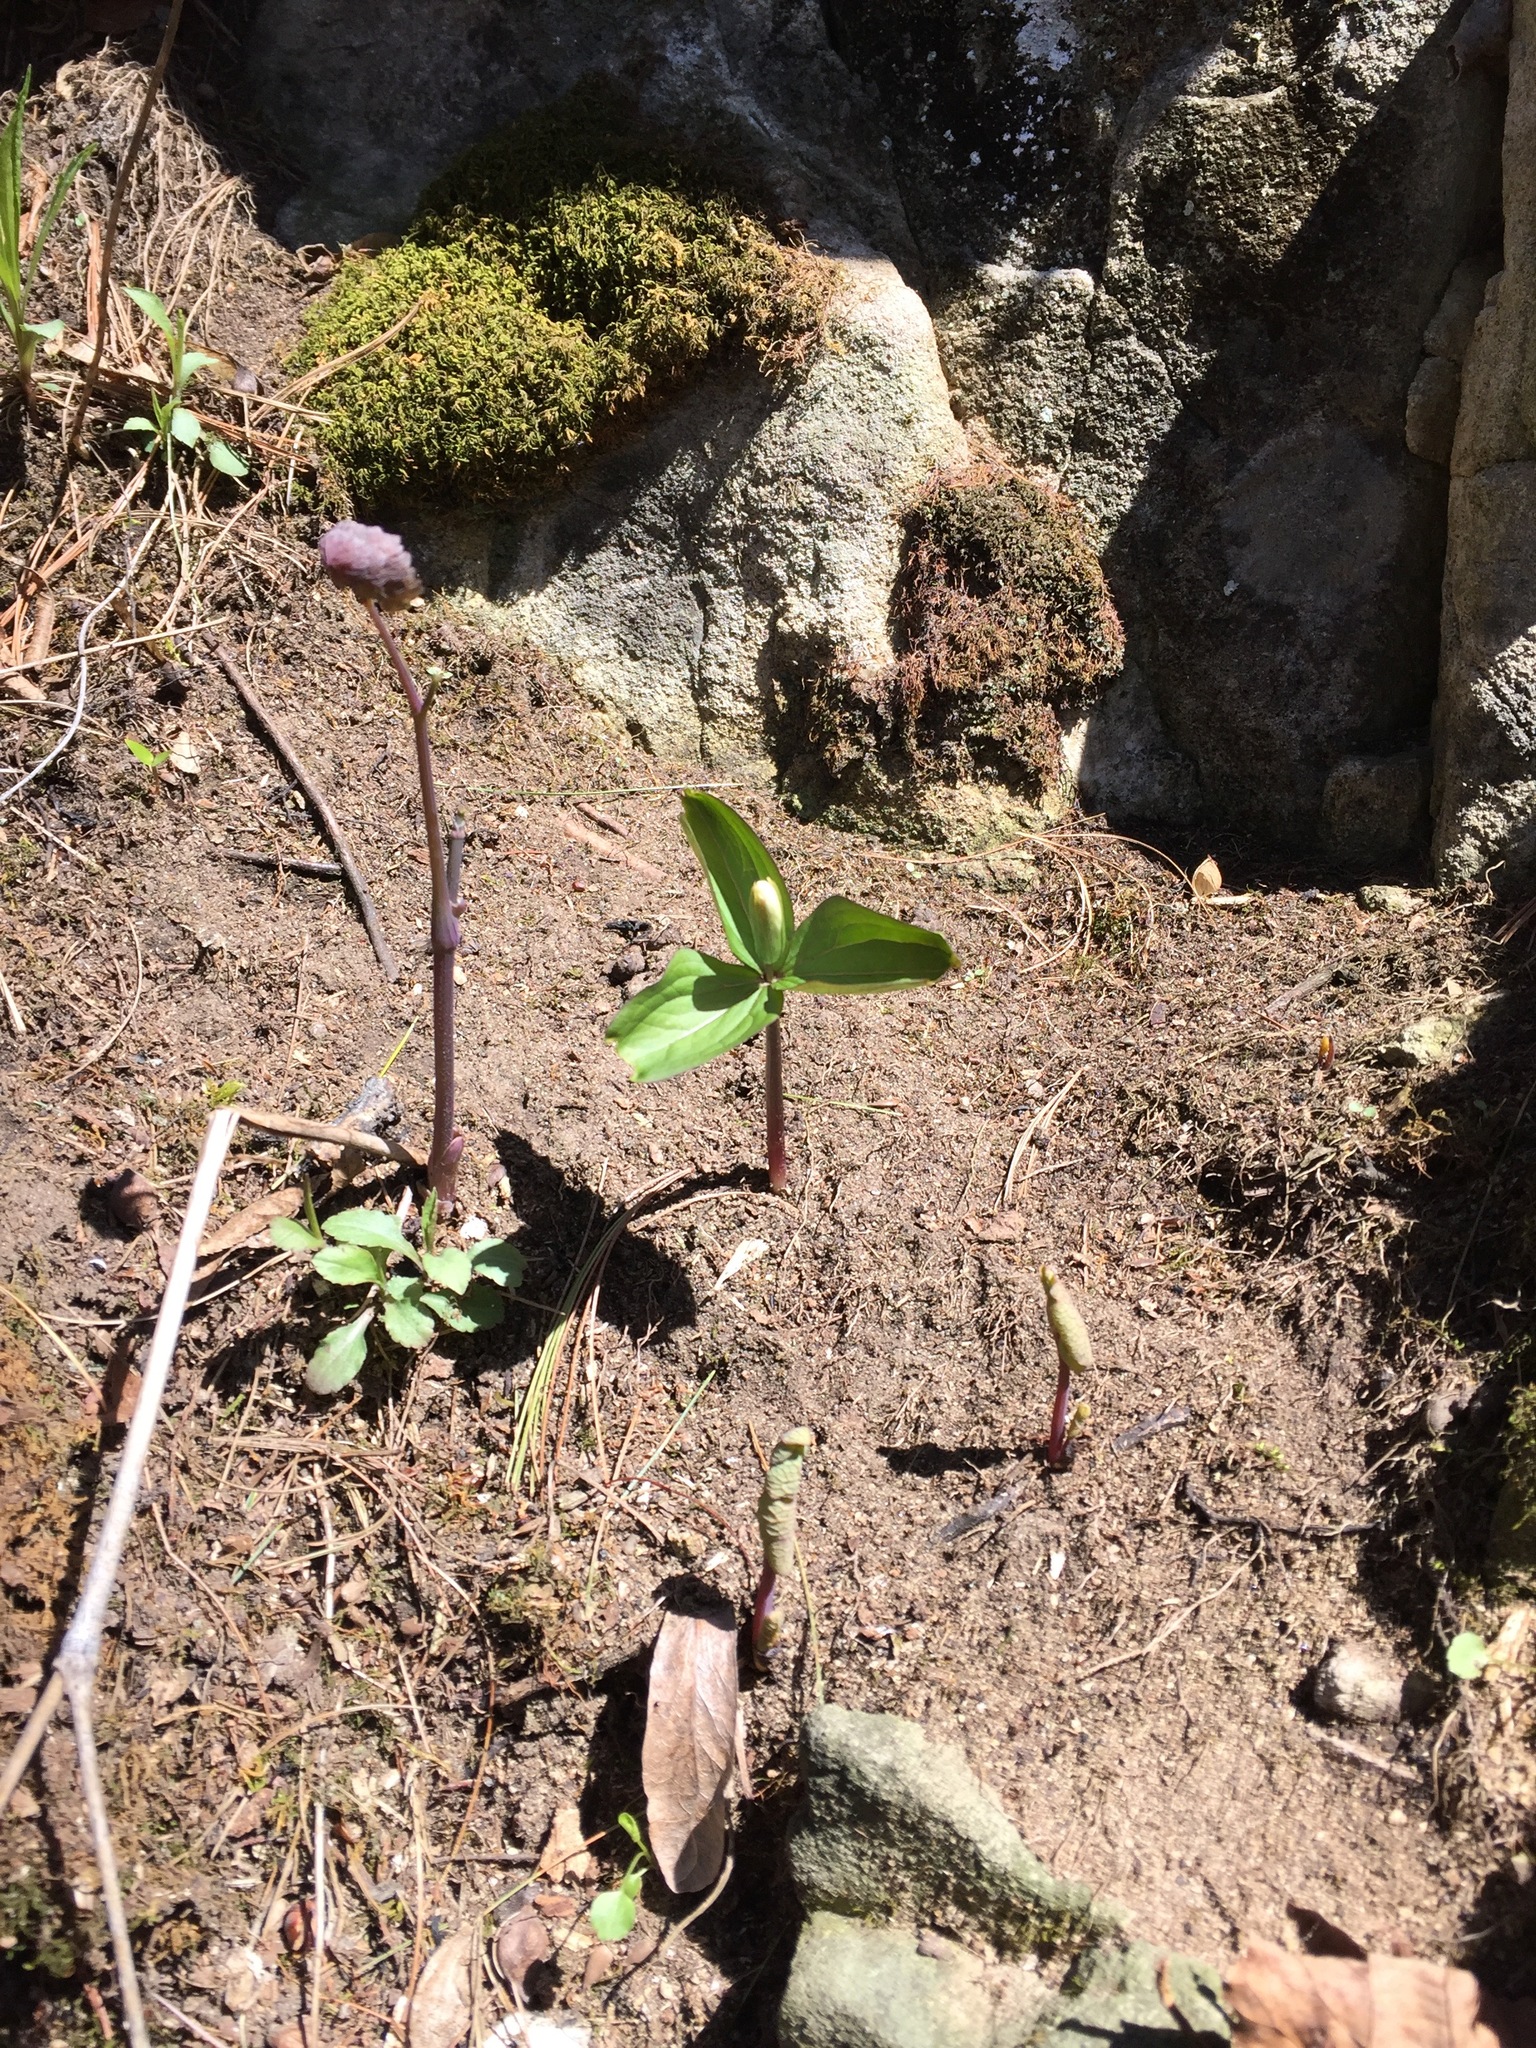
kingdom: Plantae
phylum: Tracheophyta
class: Liliopsida
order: Liliales
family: Melanthiaceae
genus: Trillium
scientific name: Trillium grandiflorum
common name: Great white trillium
